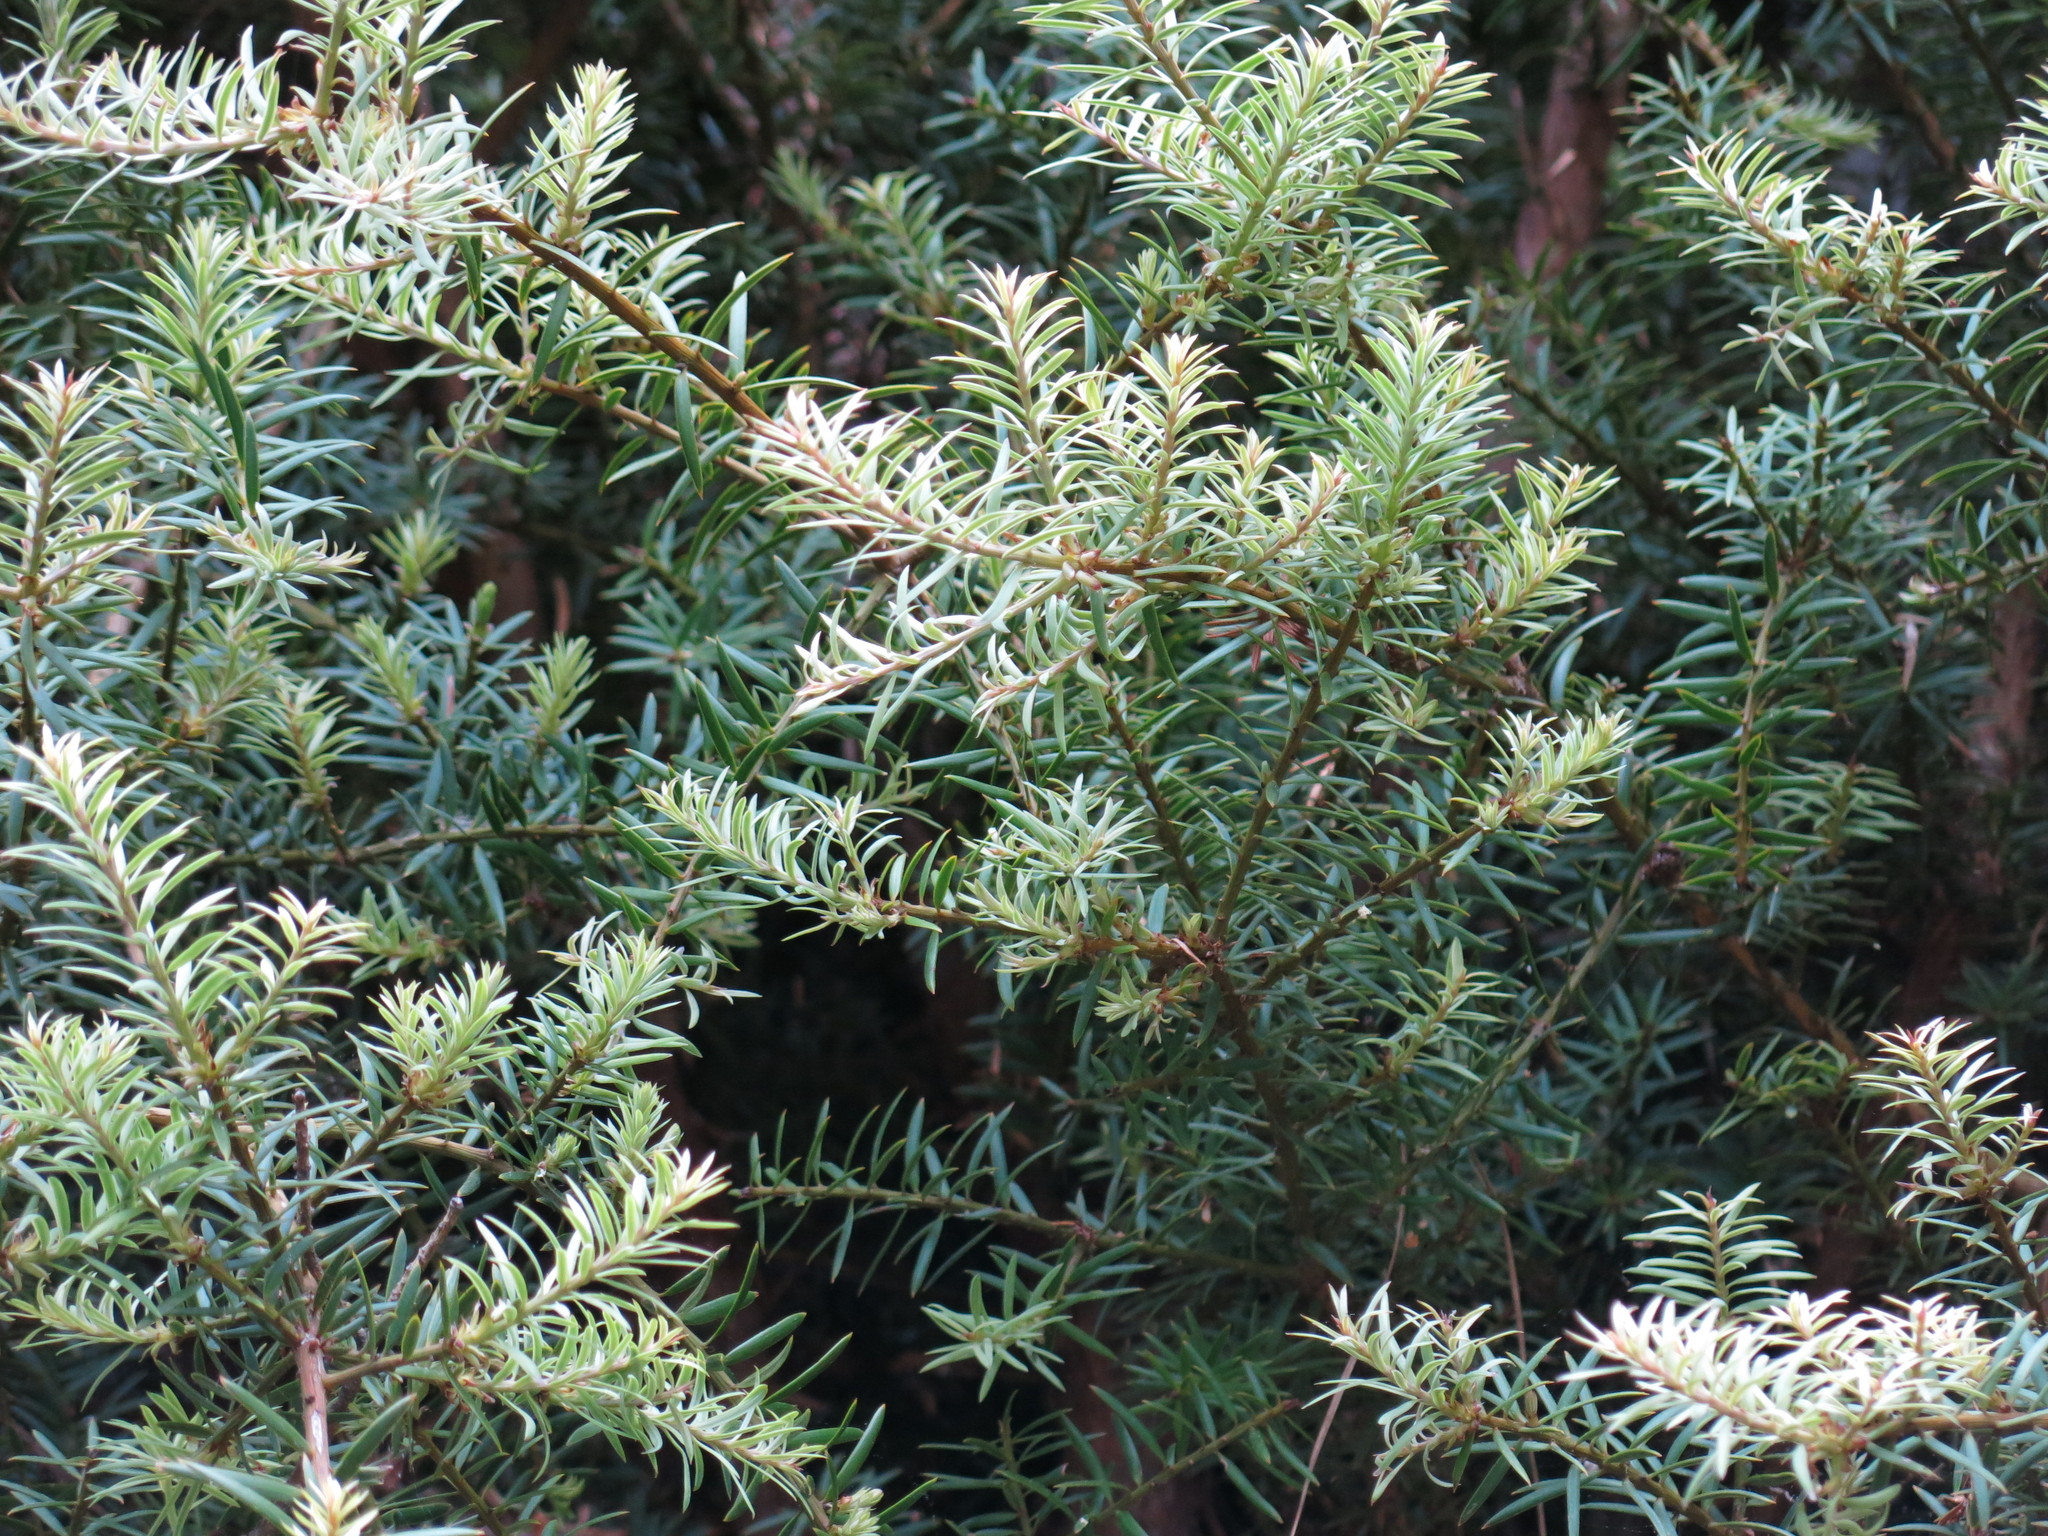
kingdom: Plantae
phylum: Tracheophyta
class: Pinopsida
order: Pinales
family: Podocarpaceae
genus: Podocarpus
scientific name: Podocarpus totara
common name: Totara
